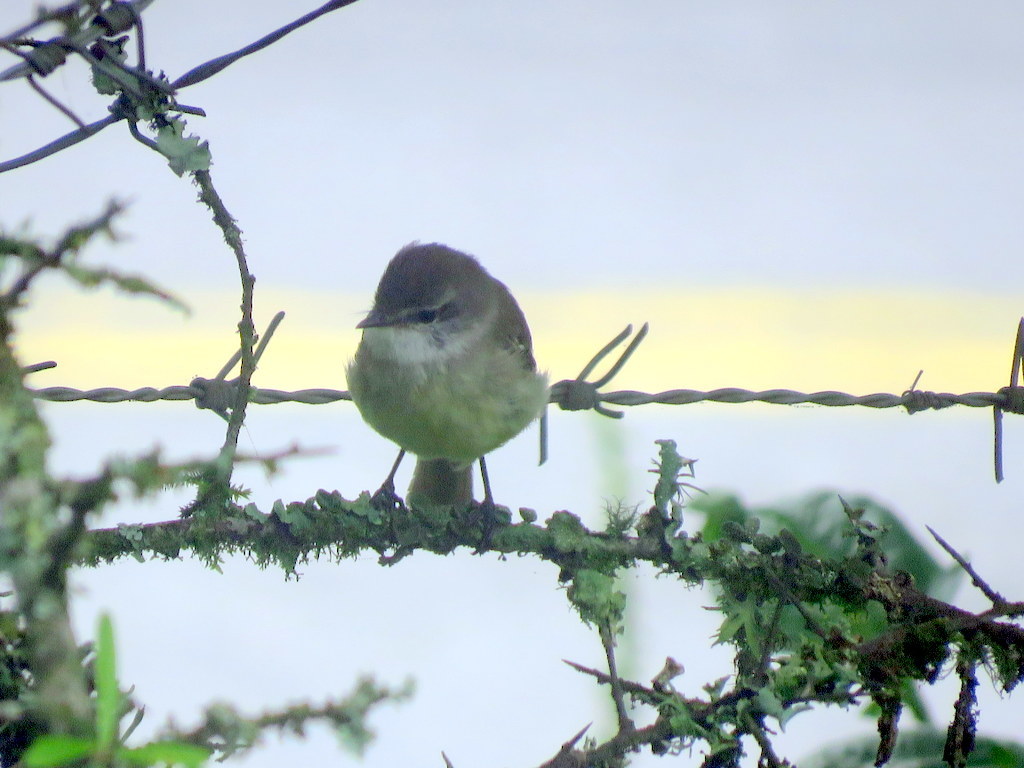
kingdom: Animalia
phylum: Chordata
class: Aves
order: Passeriformes
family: Tyrannidae
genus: Mecocerculus
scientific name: Mecocerculus leucophrys
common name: White-throated tyrannulet
